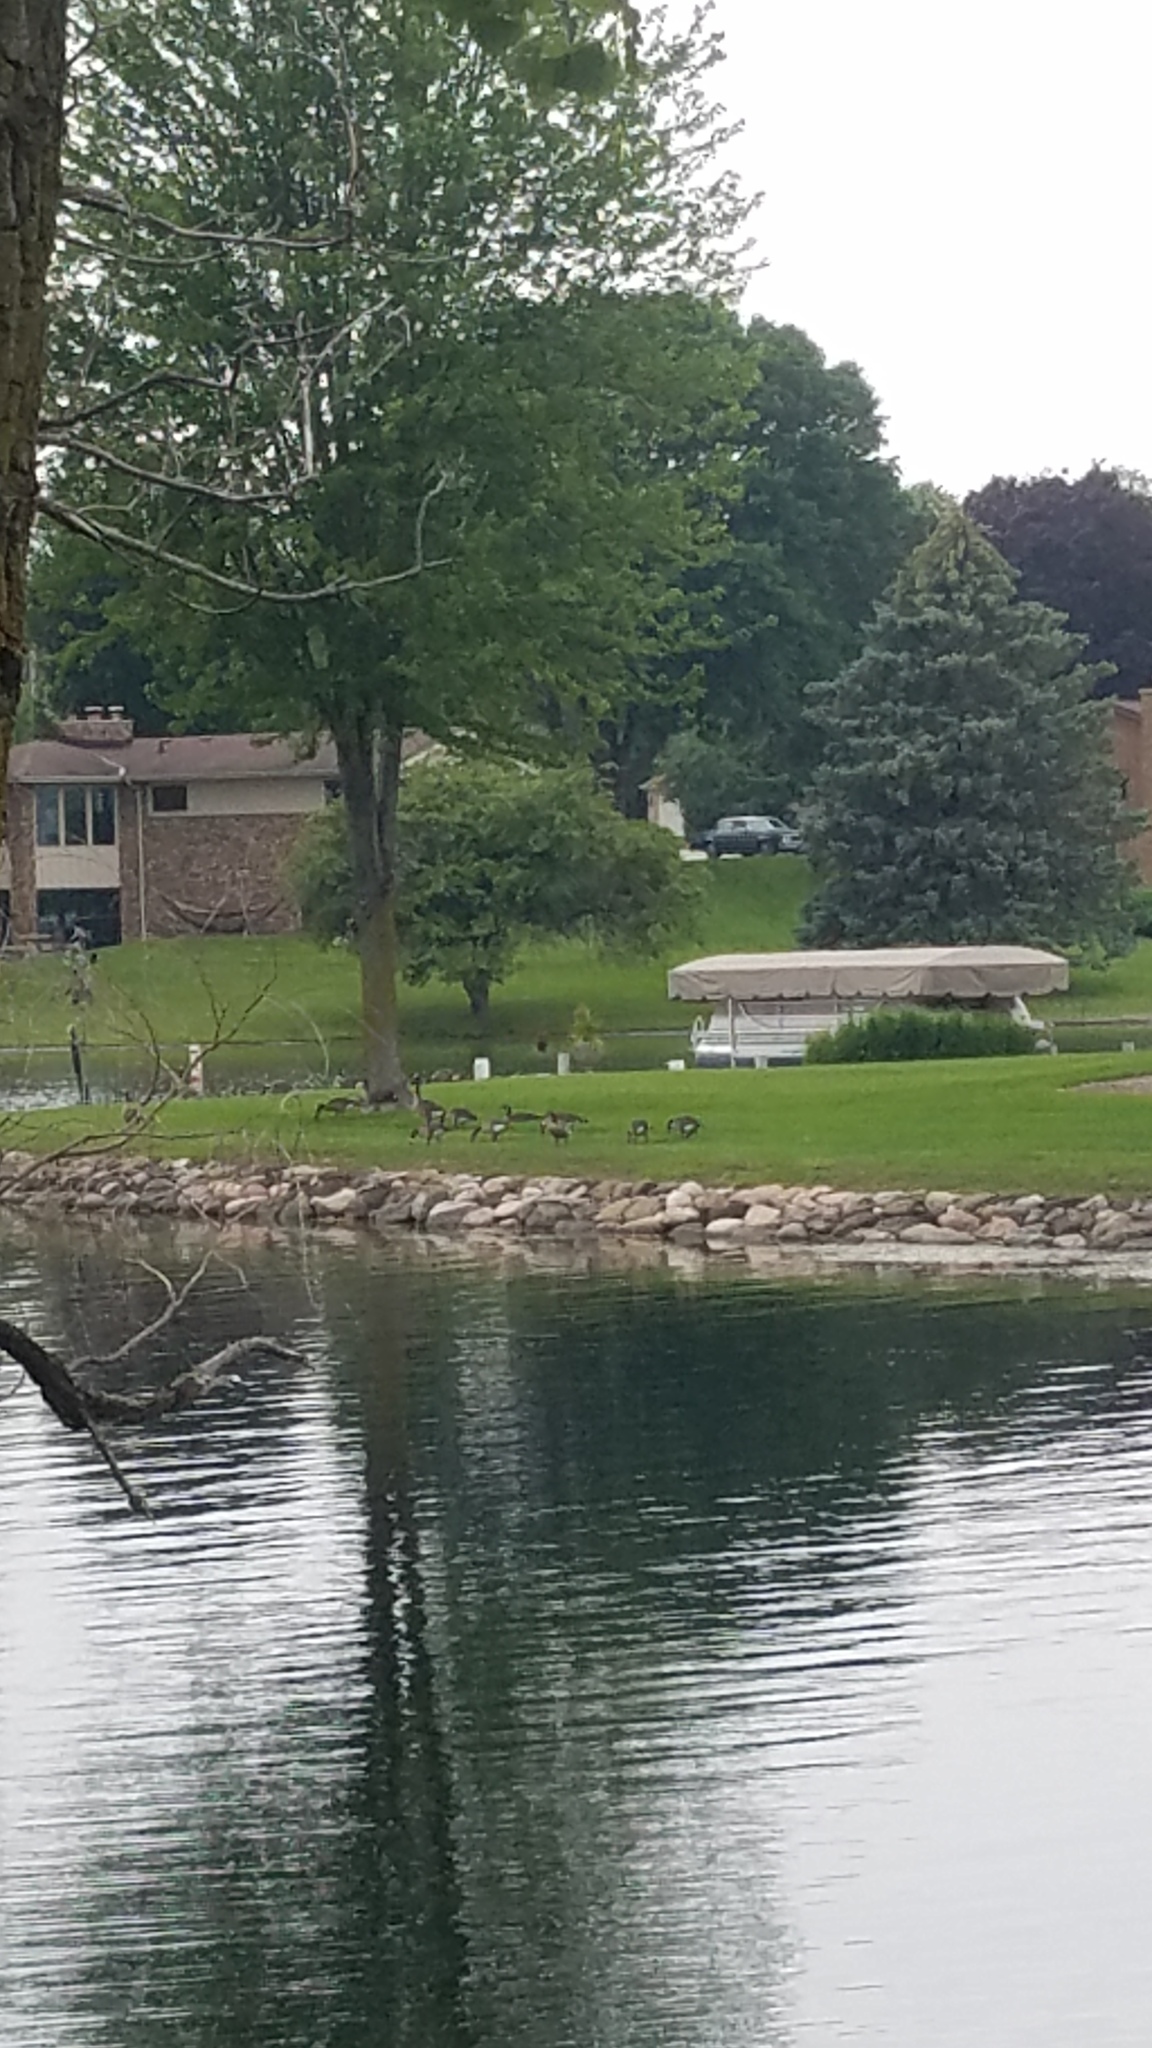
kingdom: Animalia
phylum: Chordata
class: Aves
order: Anseriformes
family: Anatidae
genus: Branta
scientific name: Branta canadensis
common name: Canada goose
